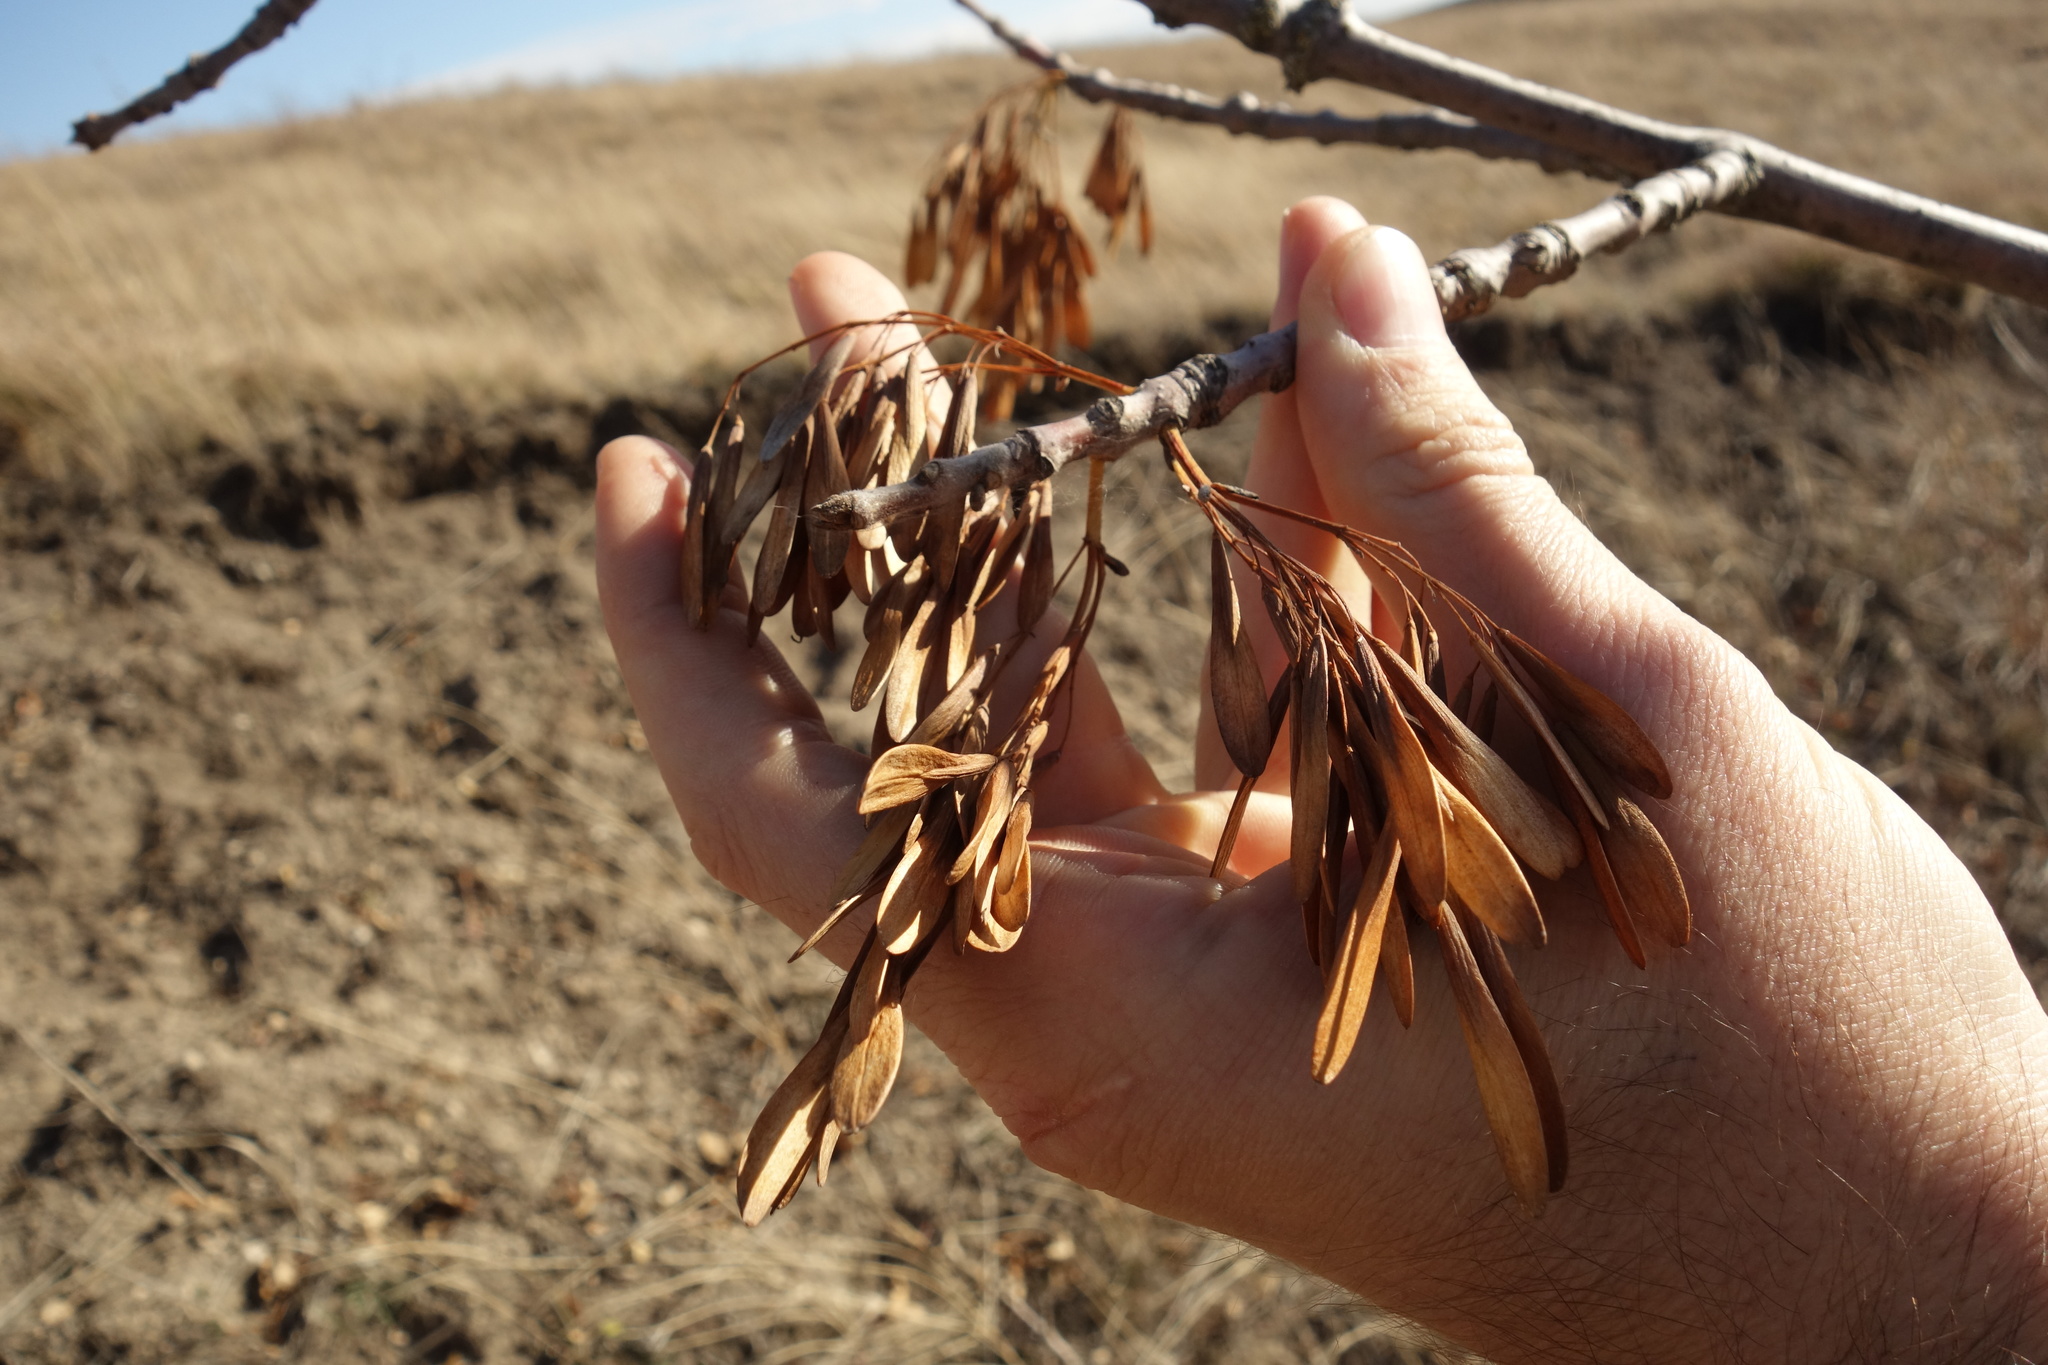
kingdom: Plantae
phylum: Tracheophyta
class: Magnoliopsida
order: Lamiales
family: Oleaceae
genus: Fraxinus
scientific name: Fraxinus pennsylvanica
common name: Green ash
